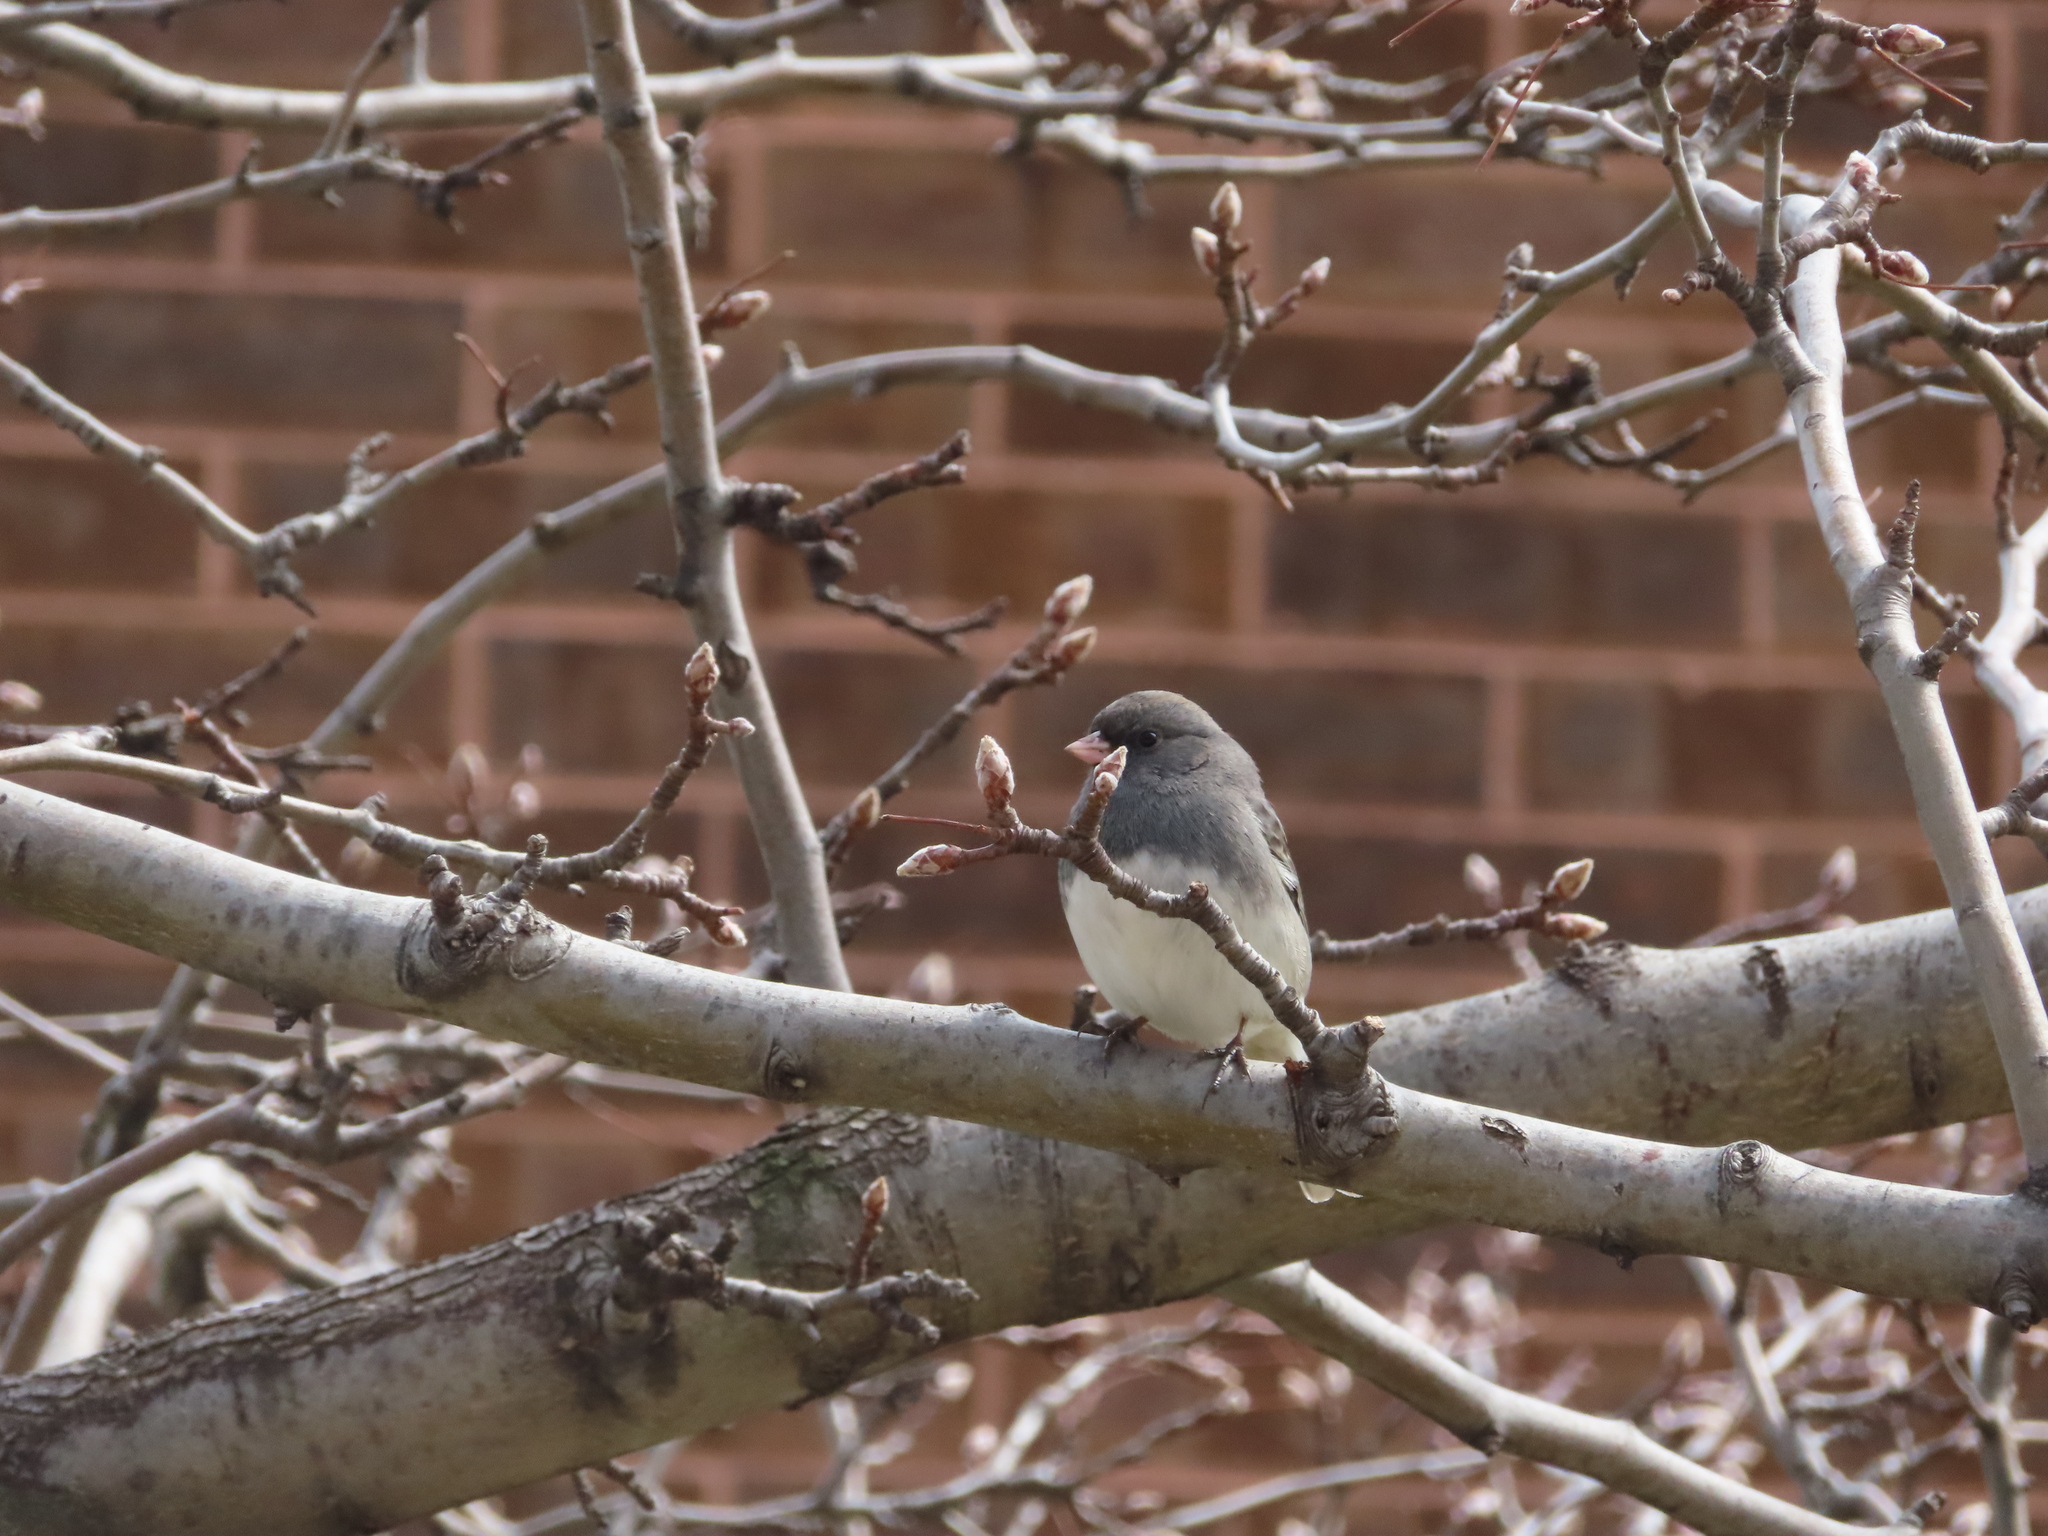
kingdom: Animalia
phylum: Chordata
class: Aves
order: Passeriformes
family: Passerellidae
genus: Junco
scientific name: Junco hyemalis
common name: Dark-eyed junco
